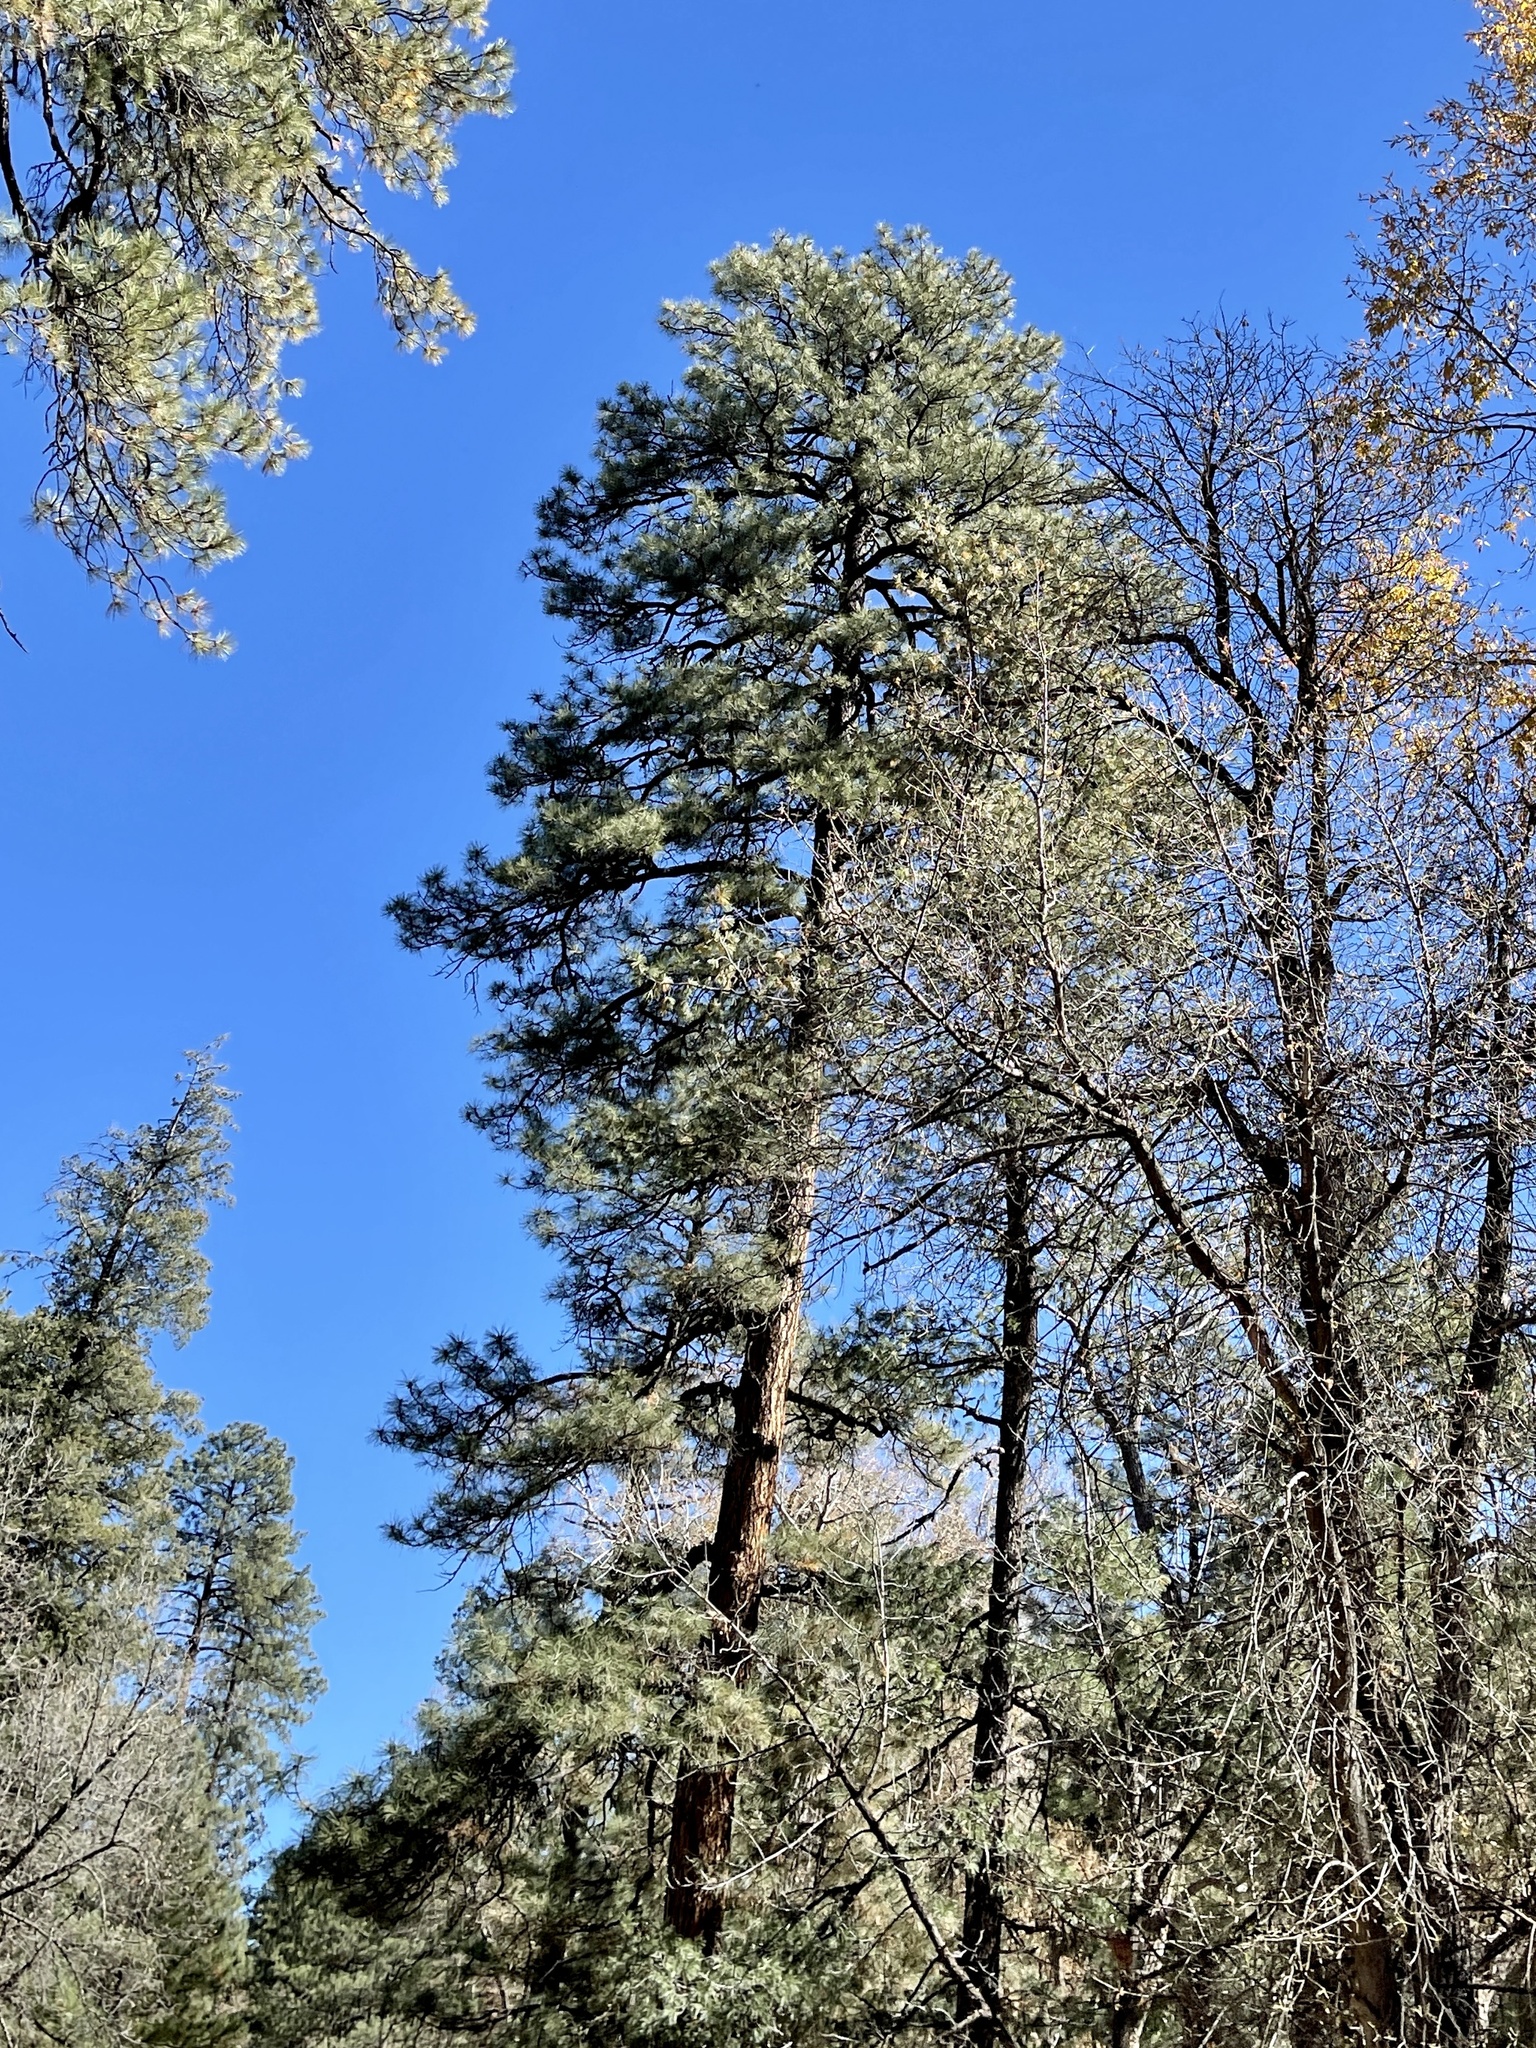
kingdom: Plantae
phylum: Tracheophyta
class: Pinopsida
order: Pinales
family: Pinaceae
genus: Pinus
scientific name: Pinus ponderosa
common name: Western yellow-pine
